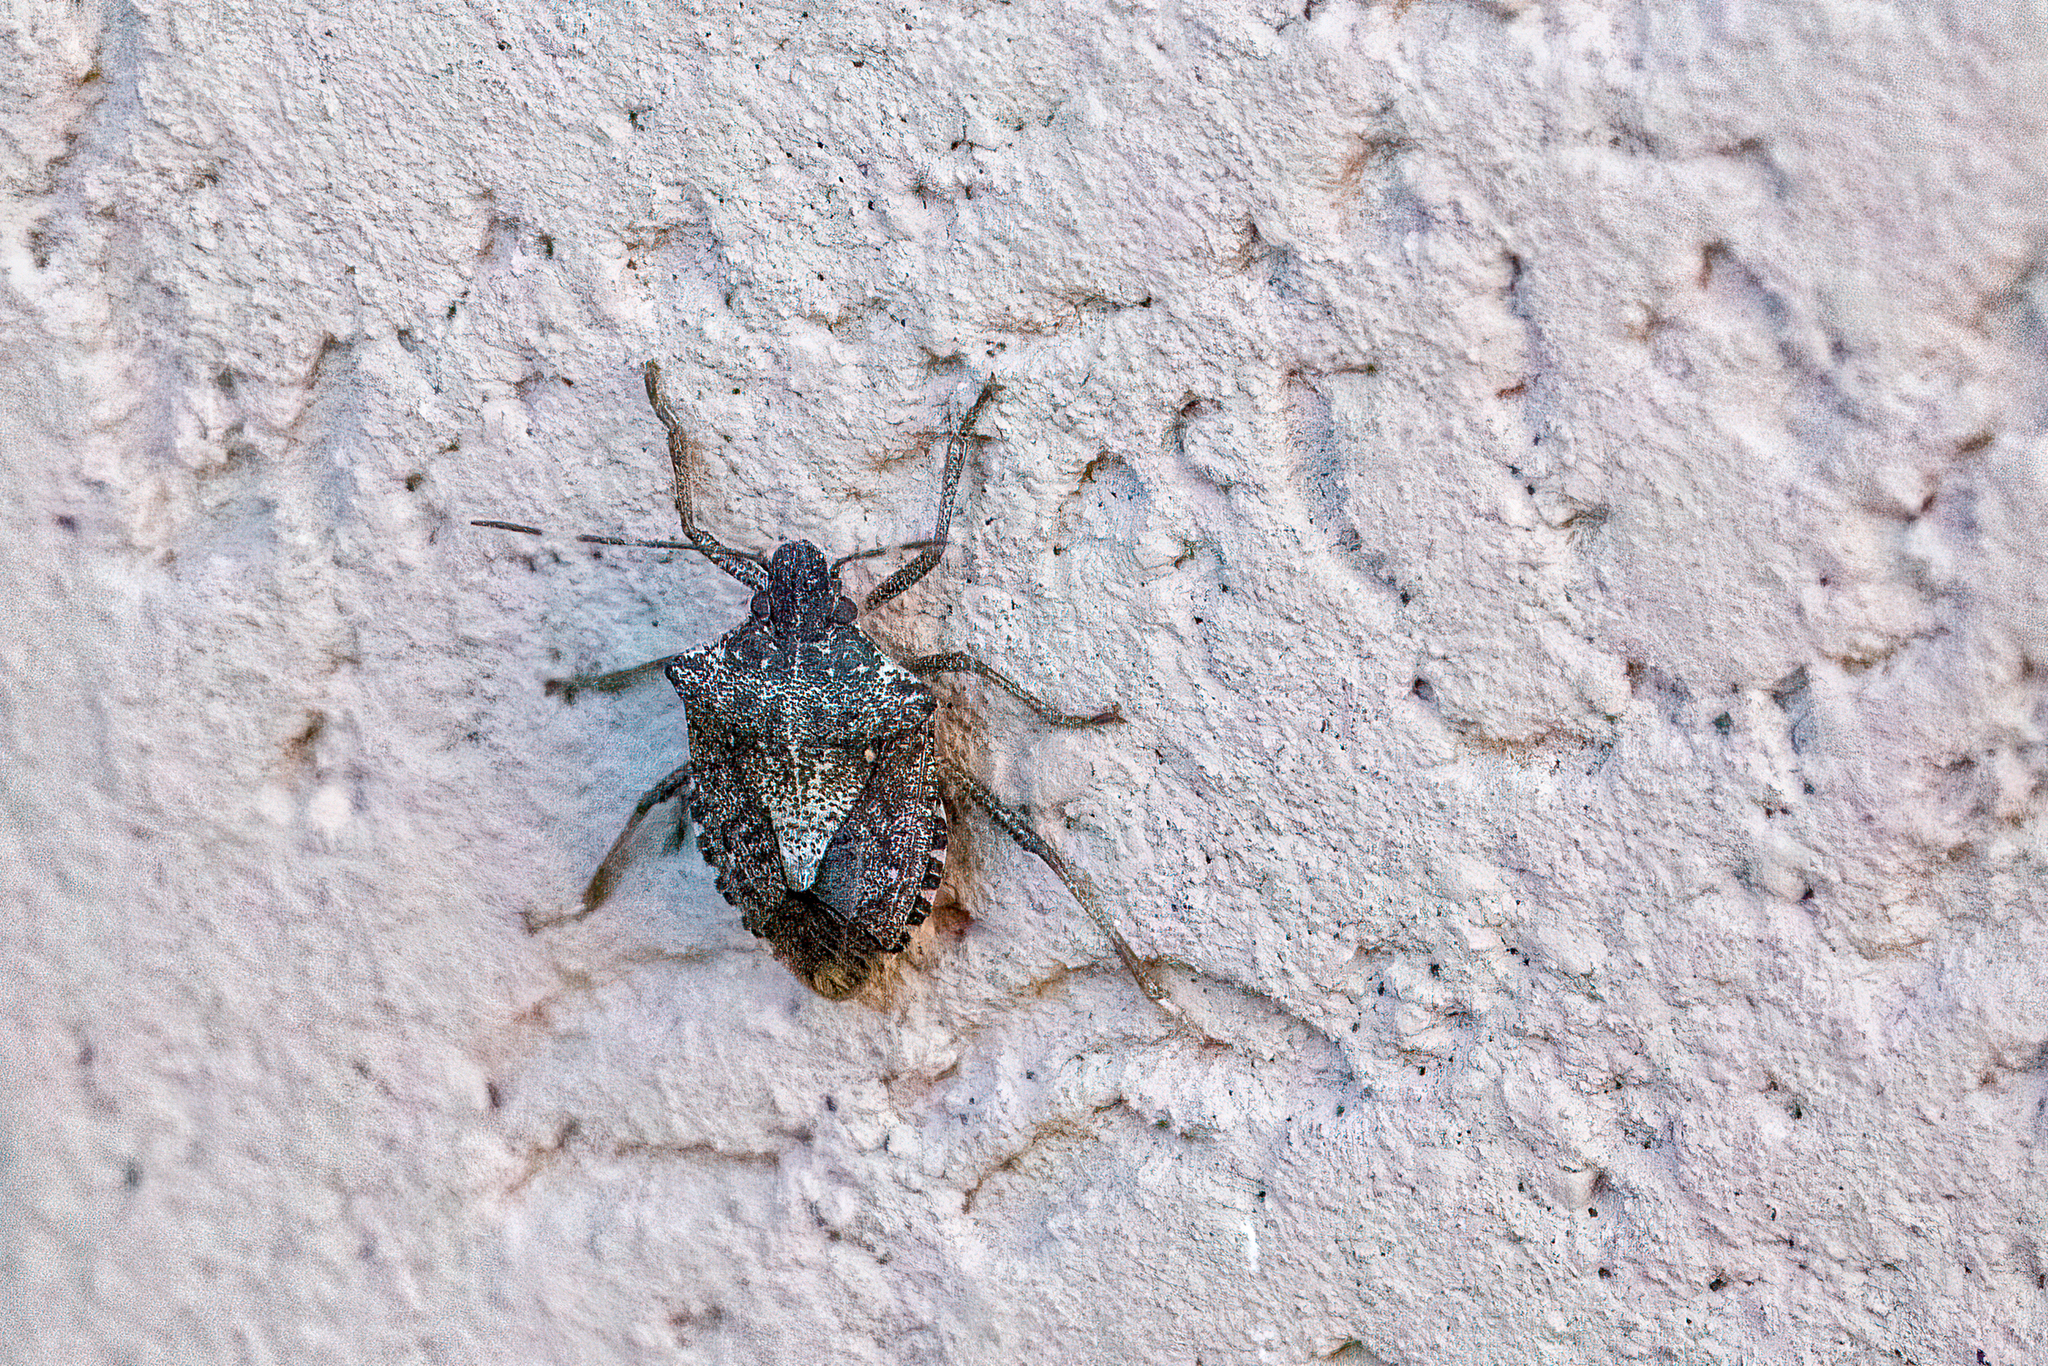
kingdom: Animalia
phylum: Arthropoda
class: Insecta
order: Hemiptera
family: Pentatomidae
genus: Halyomorpha
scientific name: Halyomorpha halys
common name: Brown marmorated stink bug
